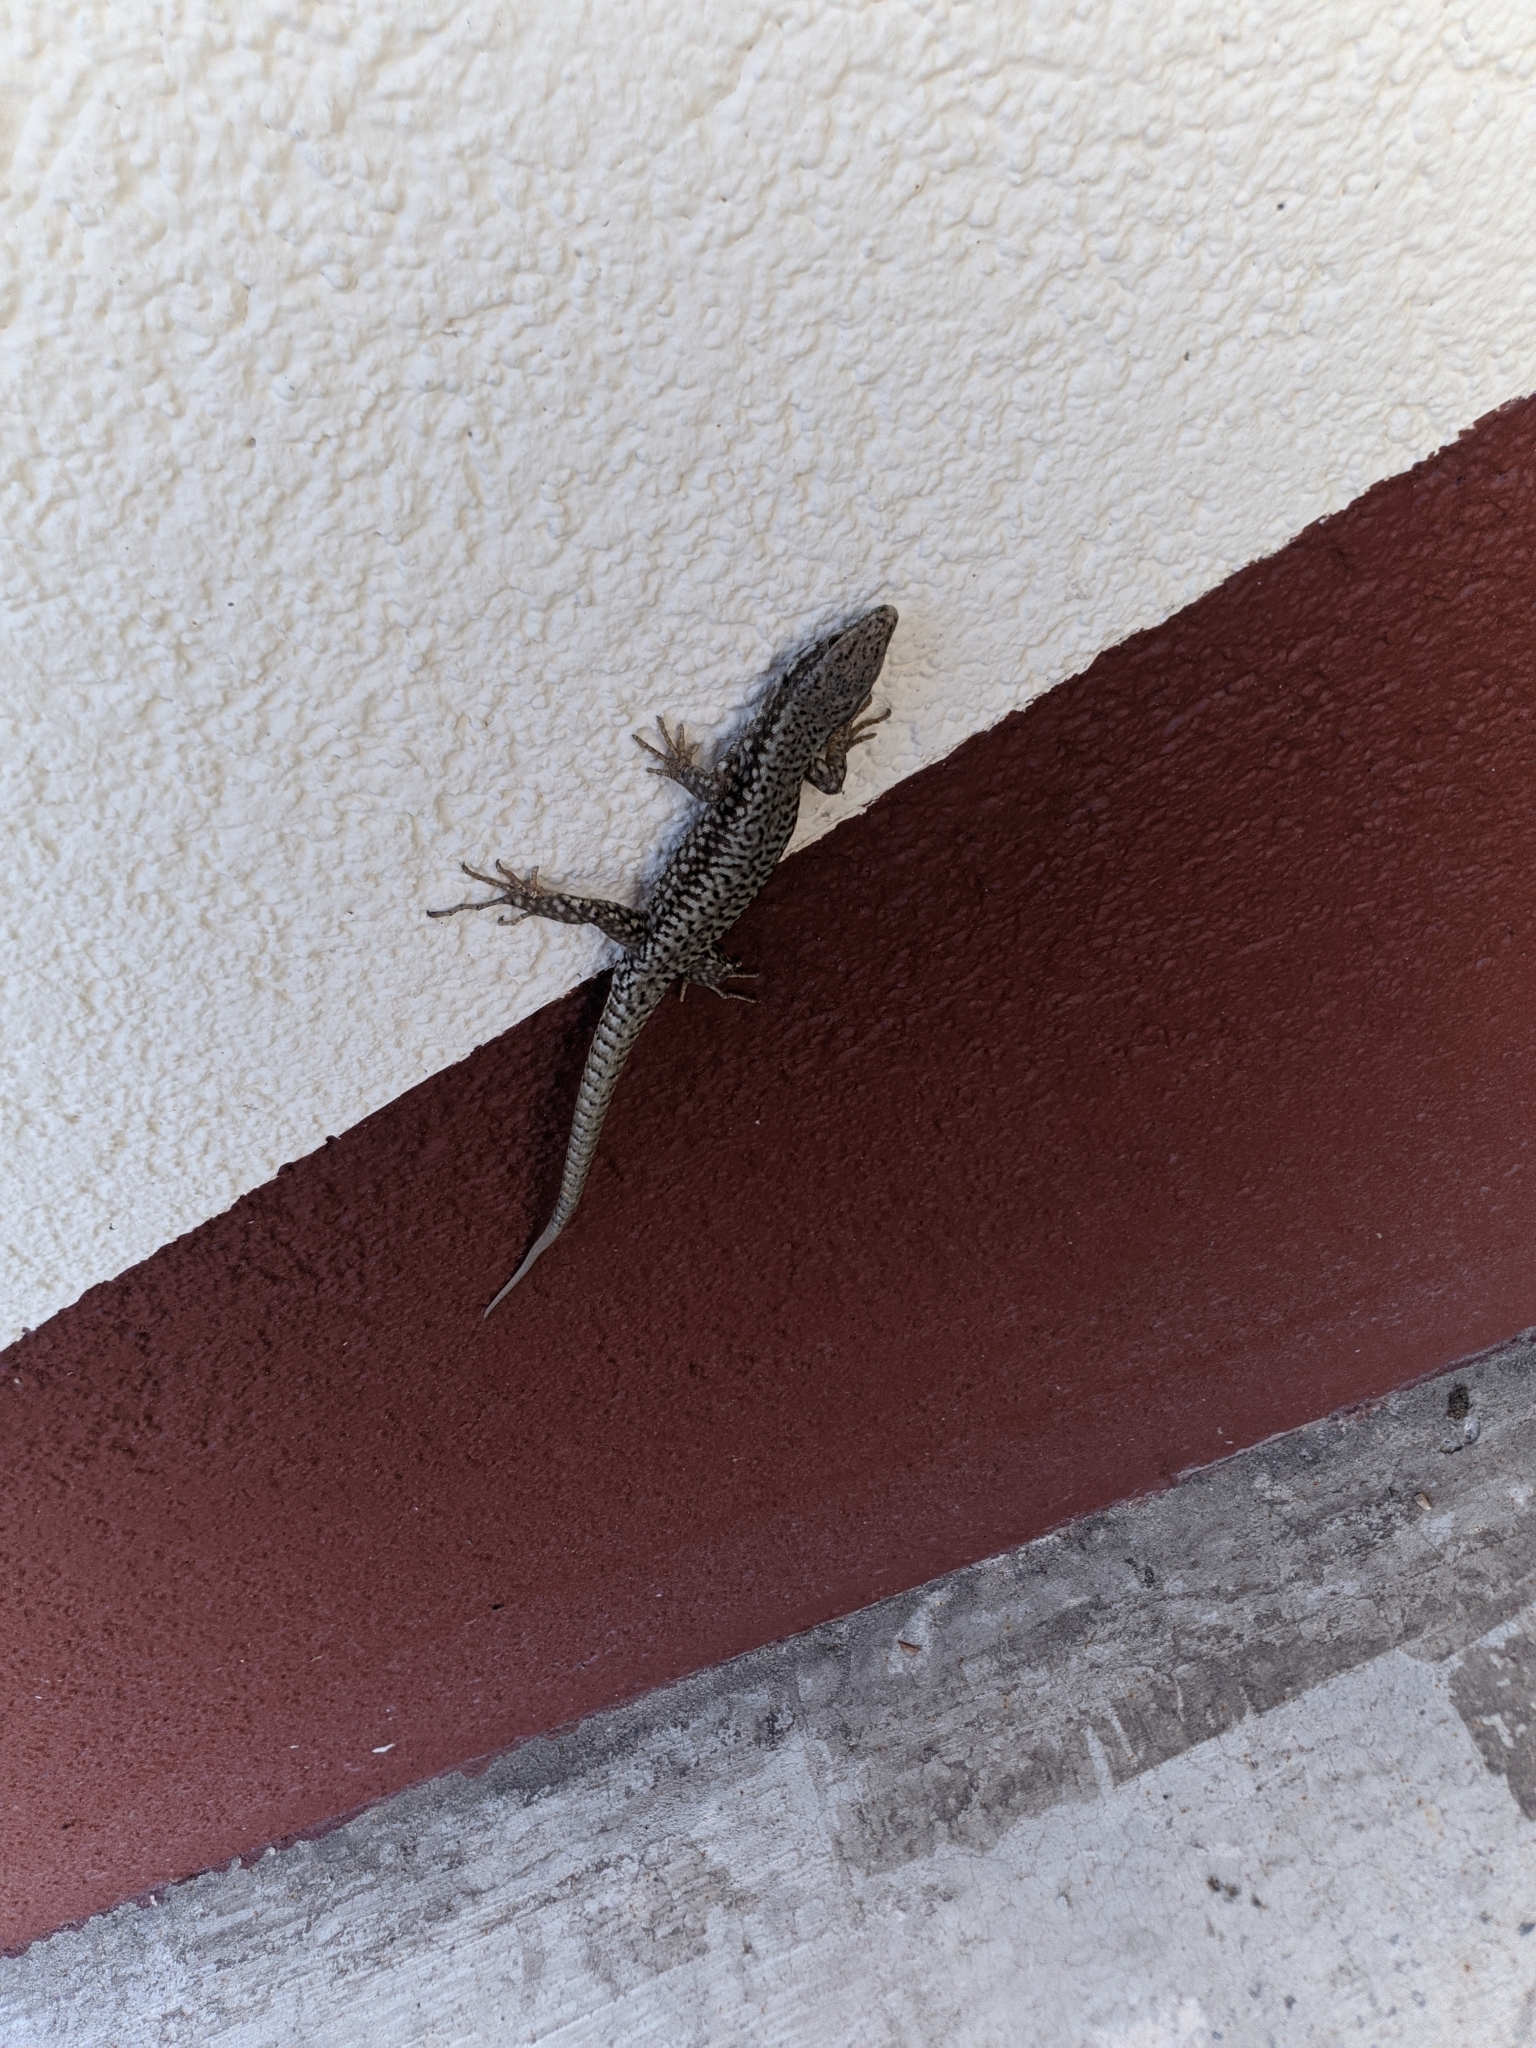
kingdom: Animalia
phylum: Chordata
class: Squamata
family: Lacertidae
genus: Podarcis
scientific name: Podarcis muralis
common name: Common wall lizard
